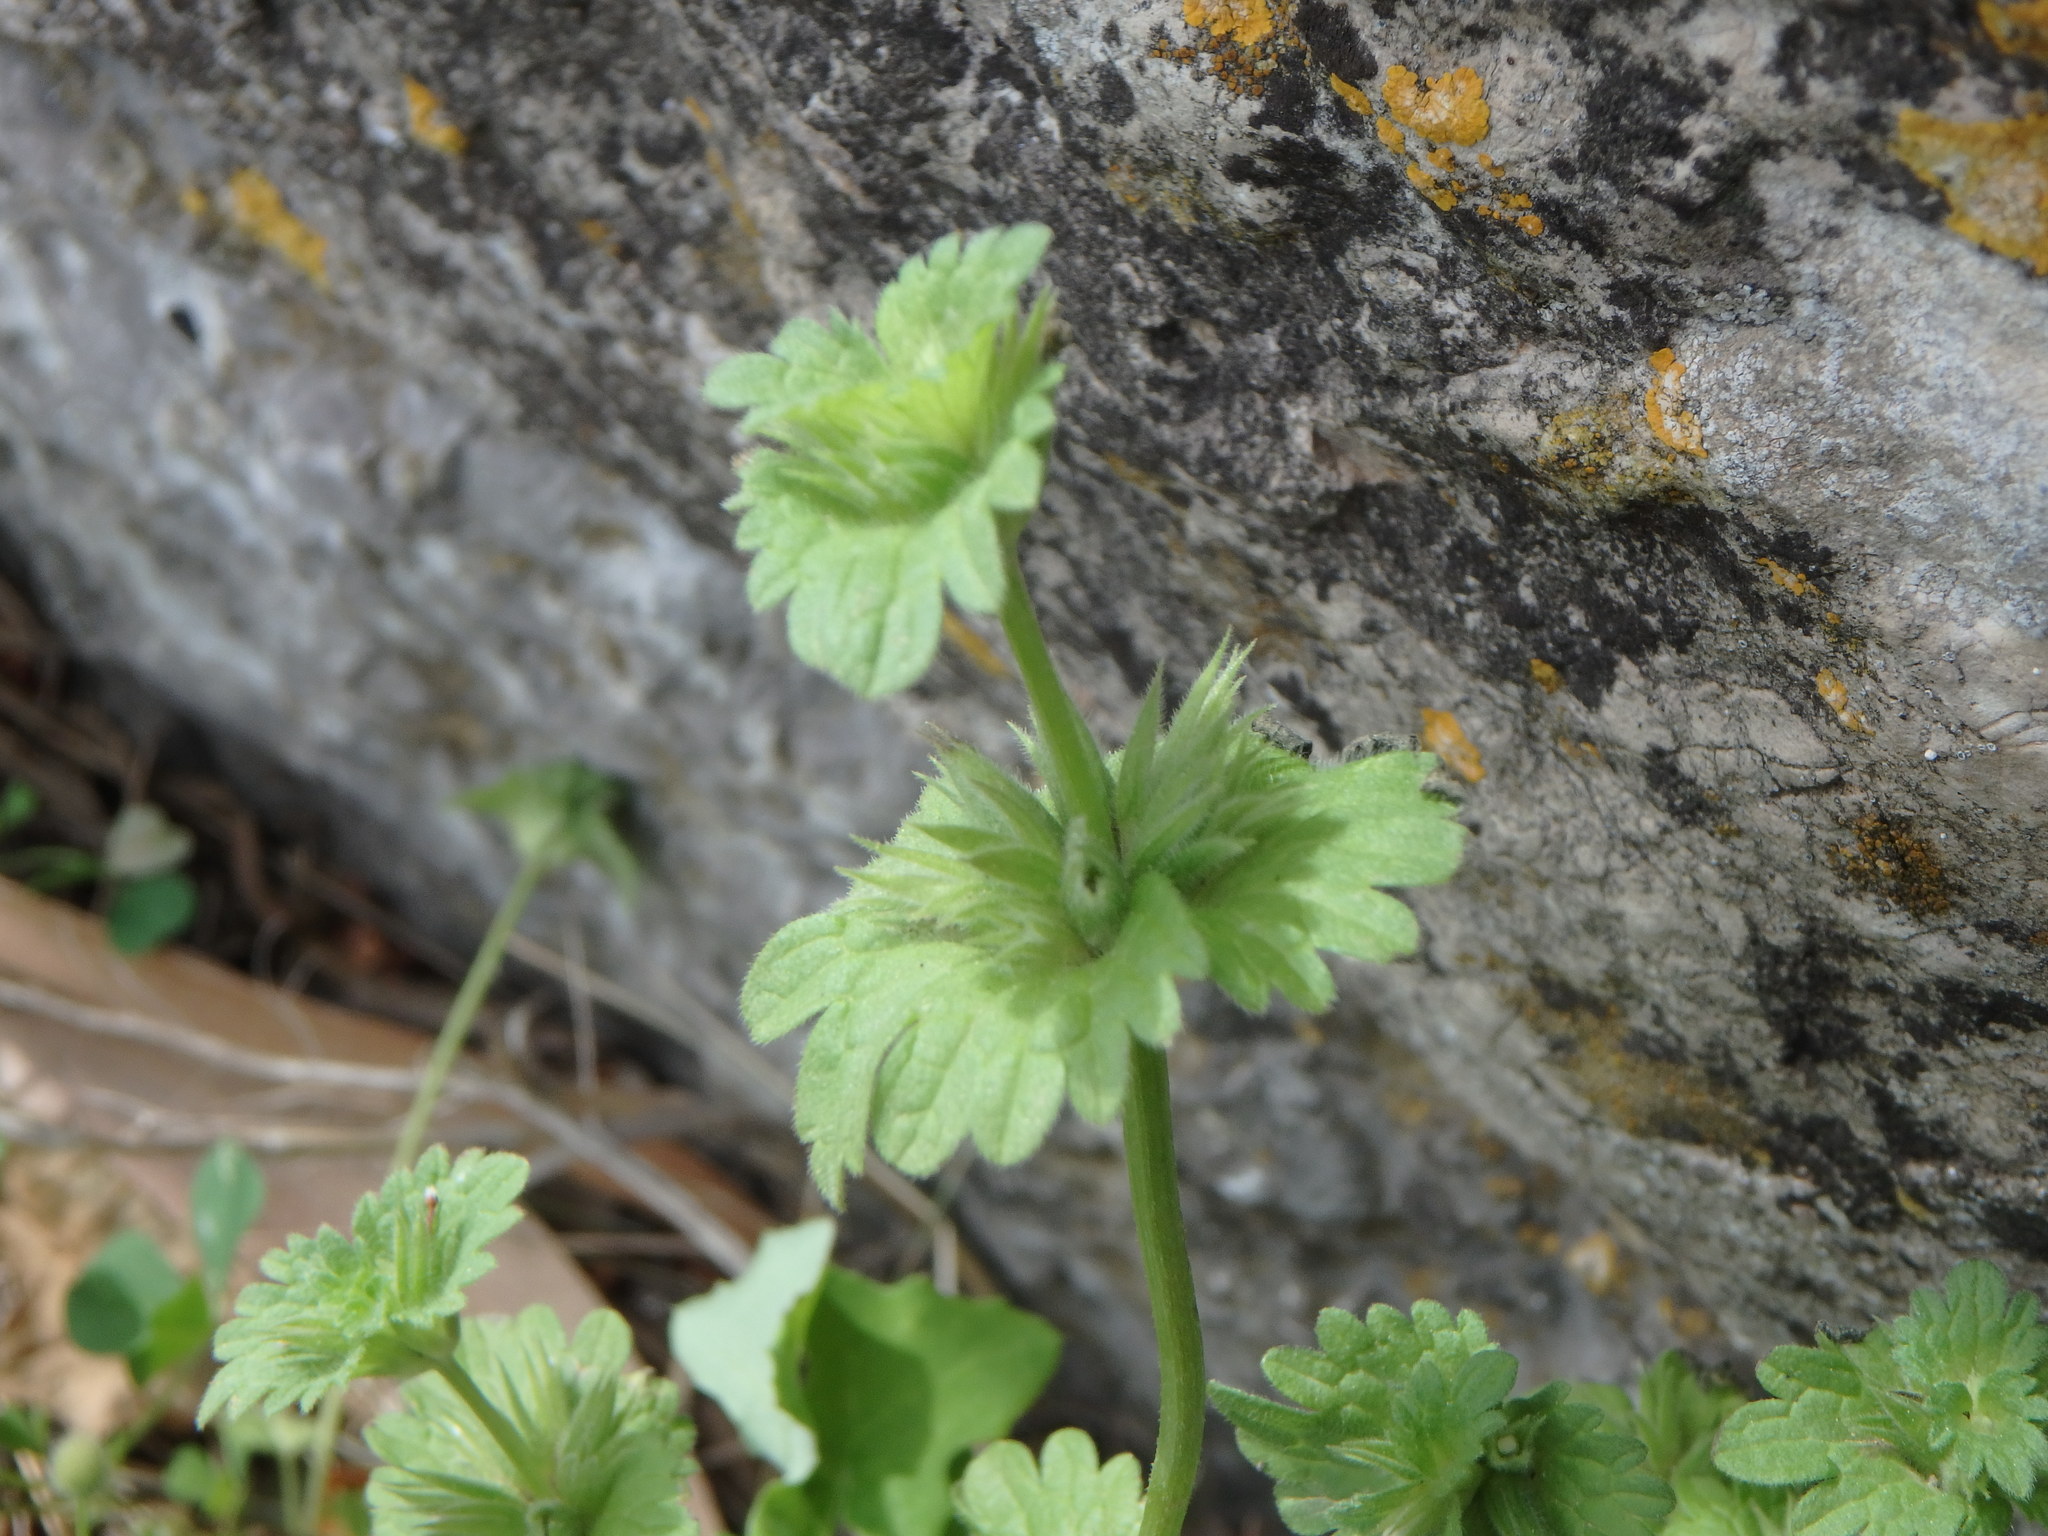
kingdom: Plantae
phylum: Tracheophyta
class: Magnoliopsida
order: Lamiales
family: Lamiaceae
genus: Lamium
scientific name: Lamium amplexicaule
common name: Henbit dead-nettle
